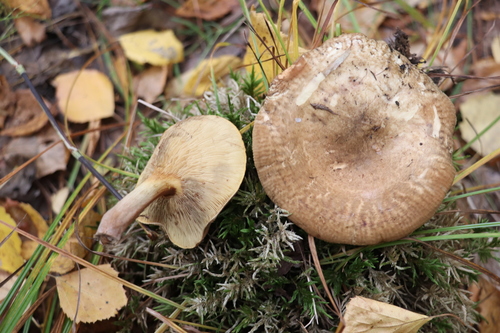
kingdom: Fungi
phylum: Basidiomycota
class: Agaricomycetes
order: Boletales
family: Paxillaceae
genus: Paxillus
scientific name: Paxillus involutus
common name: Brown roll rim
